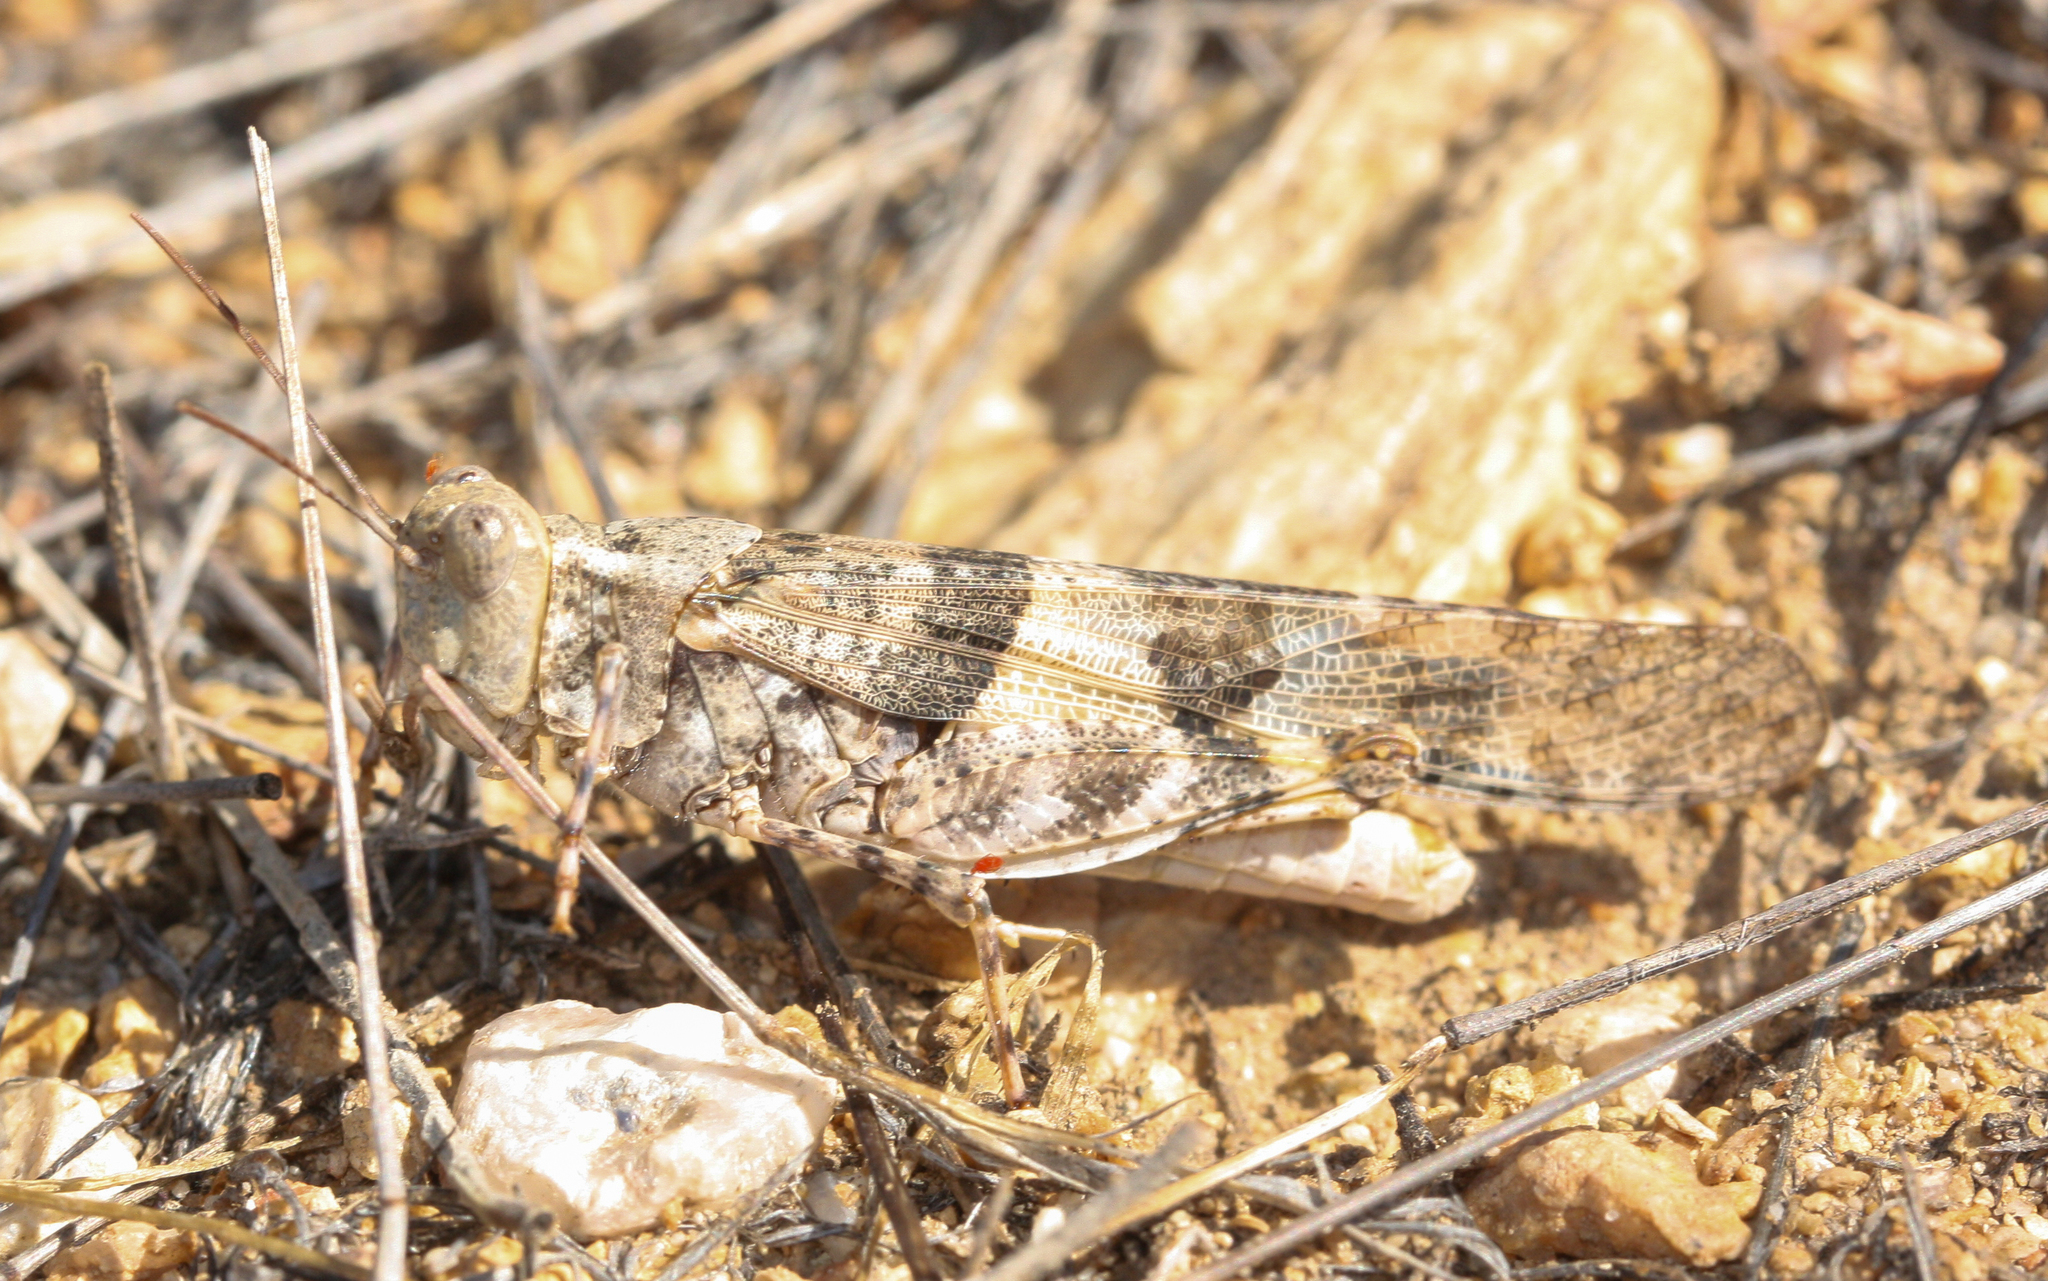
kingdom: Animalia
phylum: Arthropoda
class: Insecta
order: Orthoptera
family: Acrididae
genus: Trimerotropis
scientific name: Trimerotropis pallidipennis
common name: Pallid-winged grasshopper
